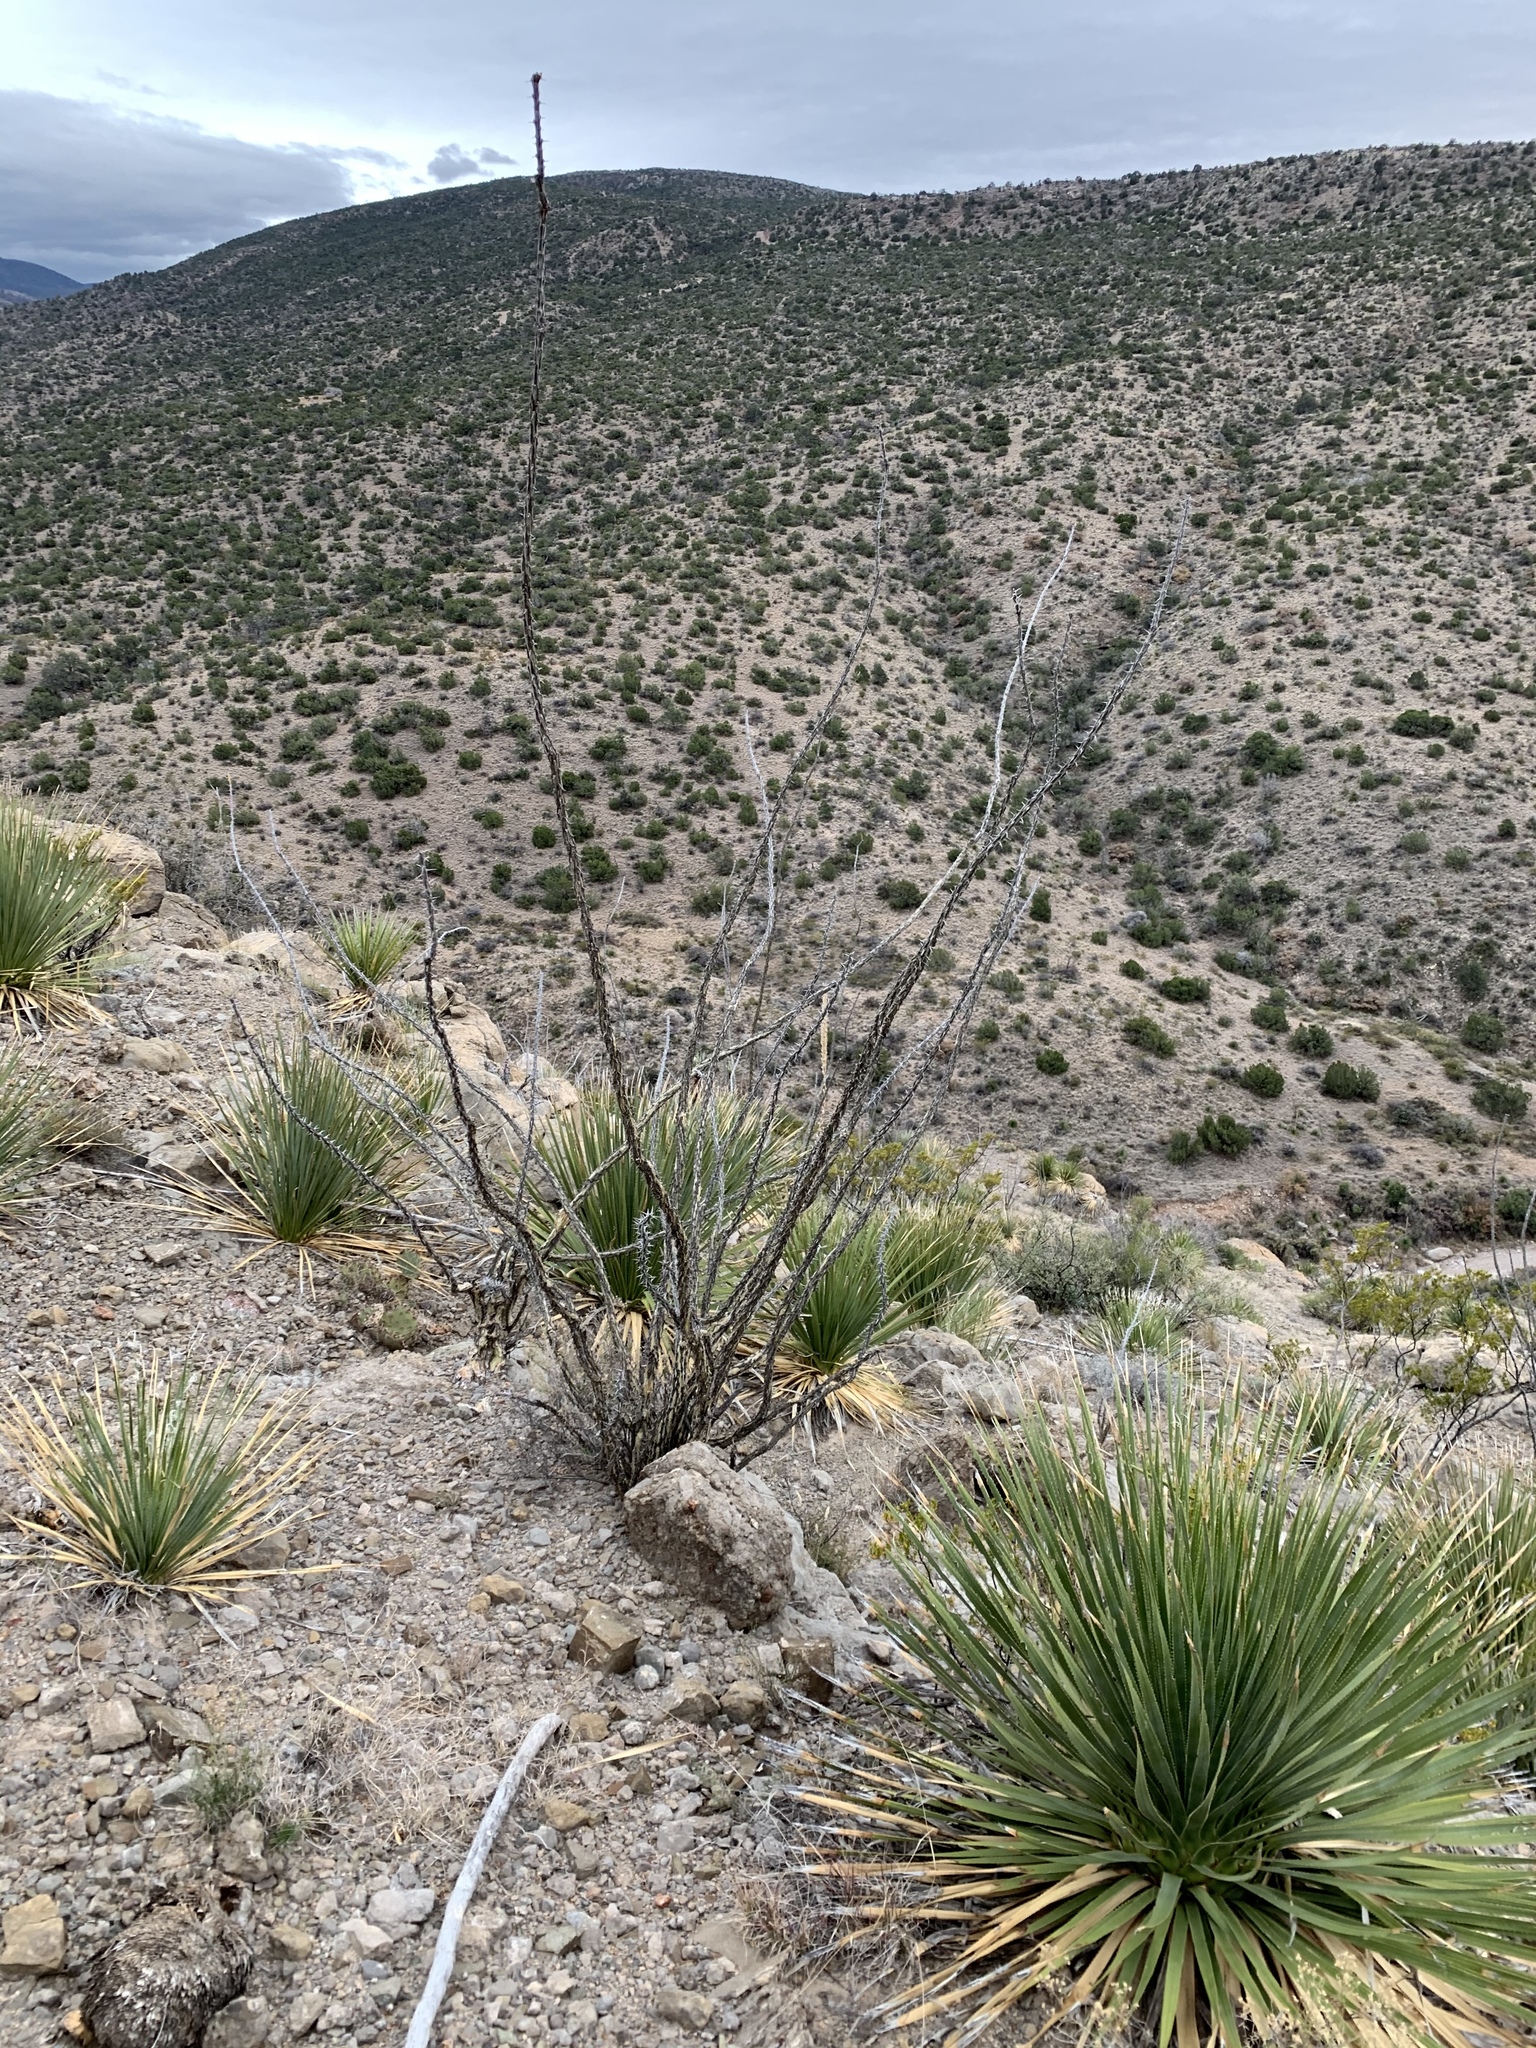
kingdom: Plantae
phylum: Tracheophyta
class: Magnoliopsida
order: Ericales
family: Fouquieriaceae
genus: Fouquieria
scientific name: Fouquieria splendens
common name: Vine-cactus
